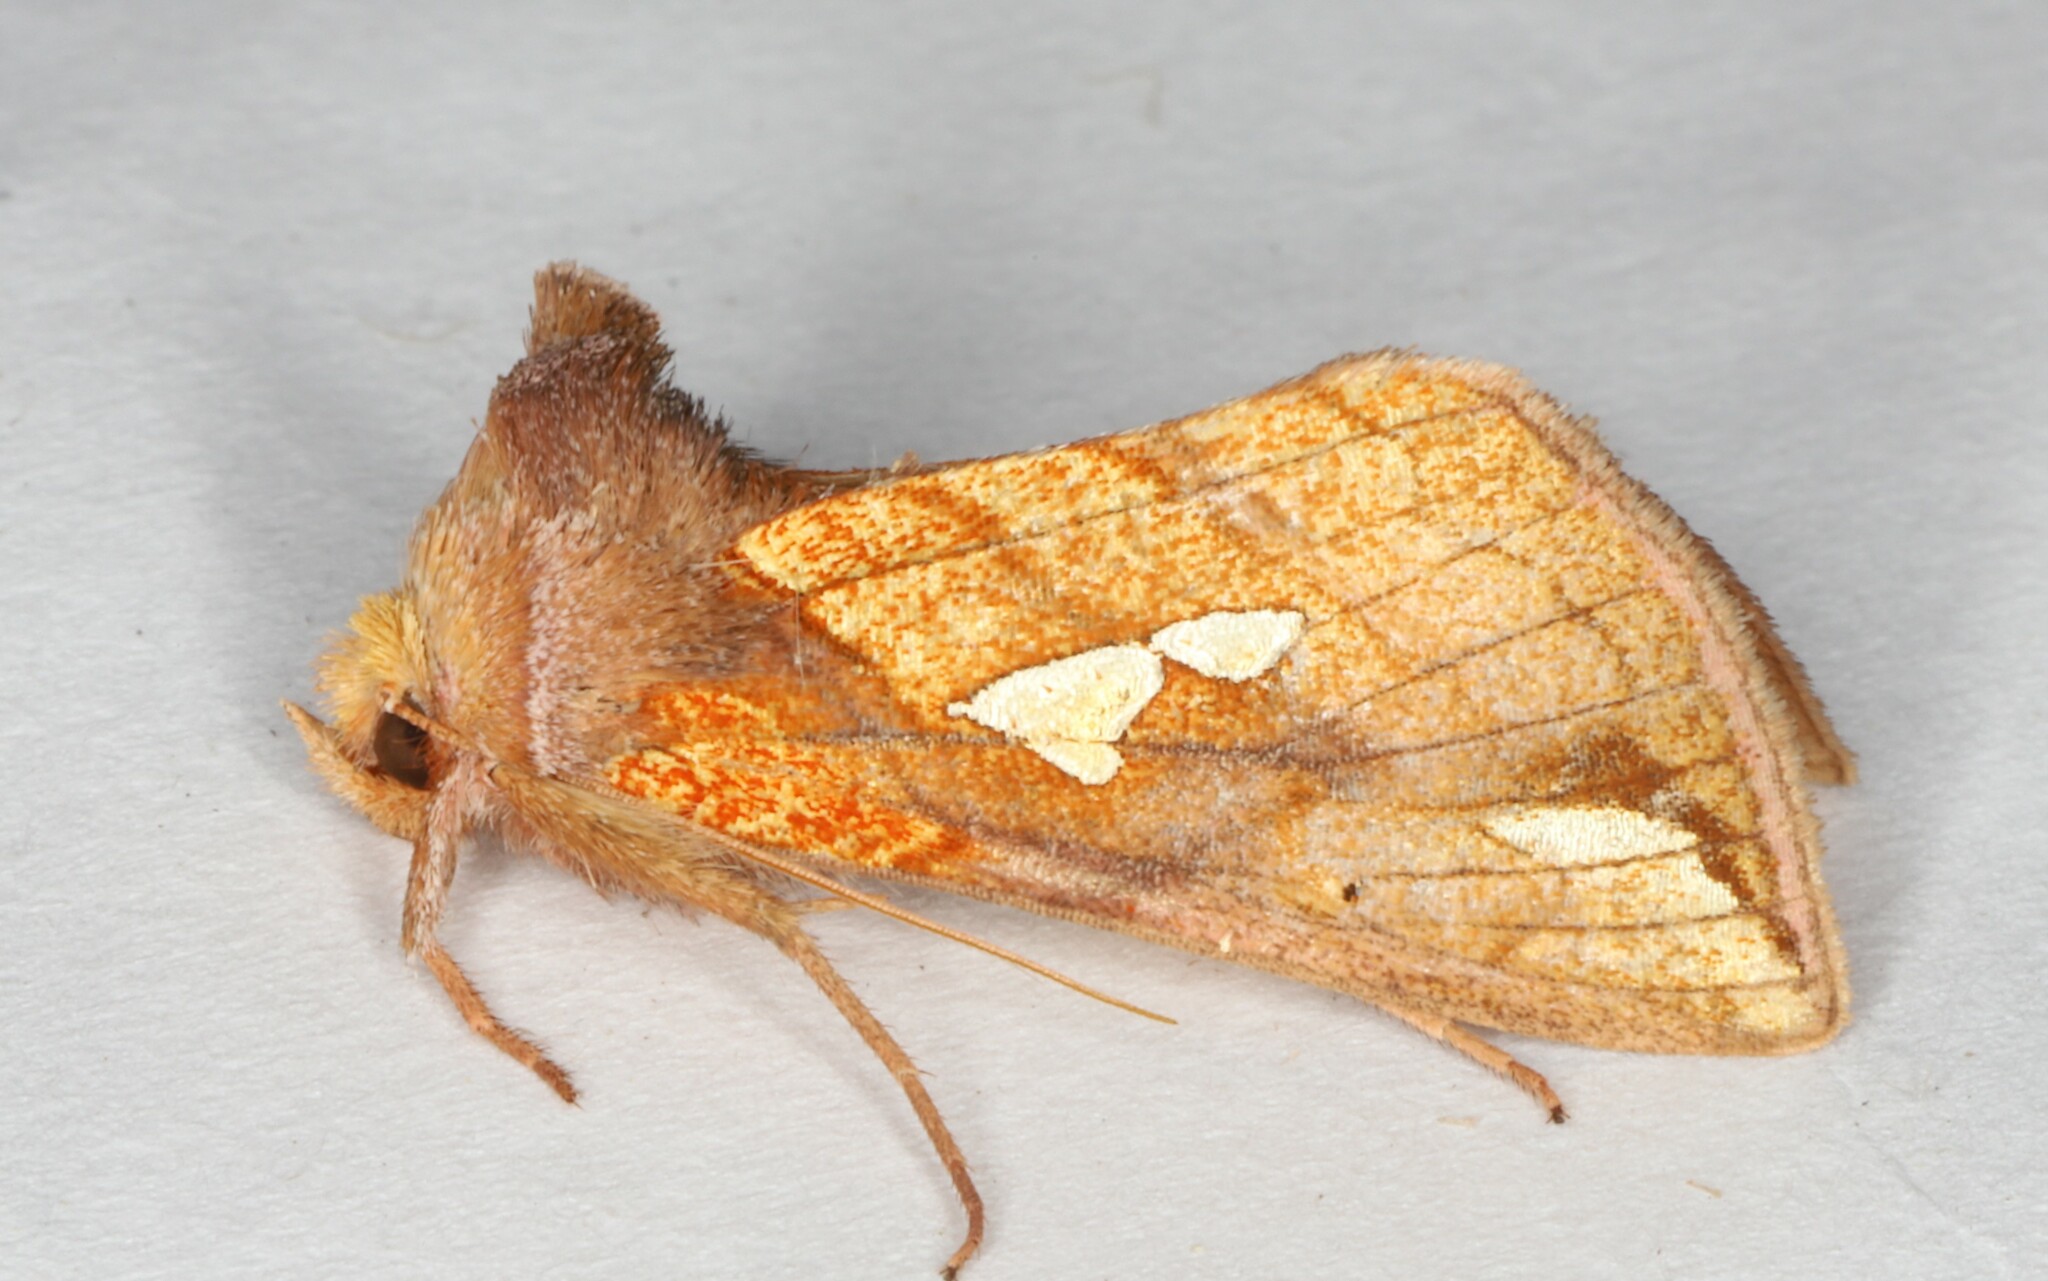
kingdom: Animalia
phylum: Arthropoda
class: Insecta
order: Lepidoptera
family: Noctuidae
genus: Plusia
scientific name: Plusia putnami
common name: Lempke's gold spot
